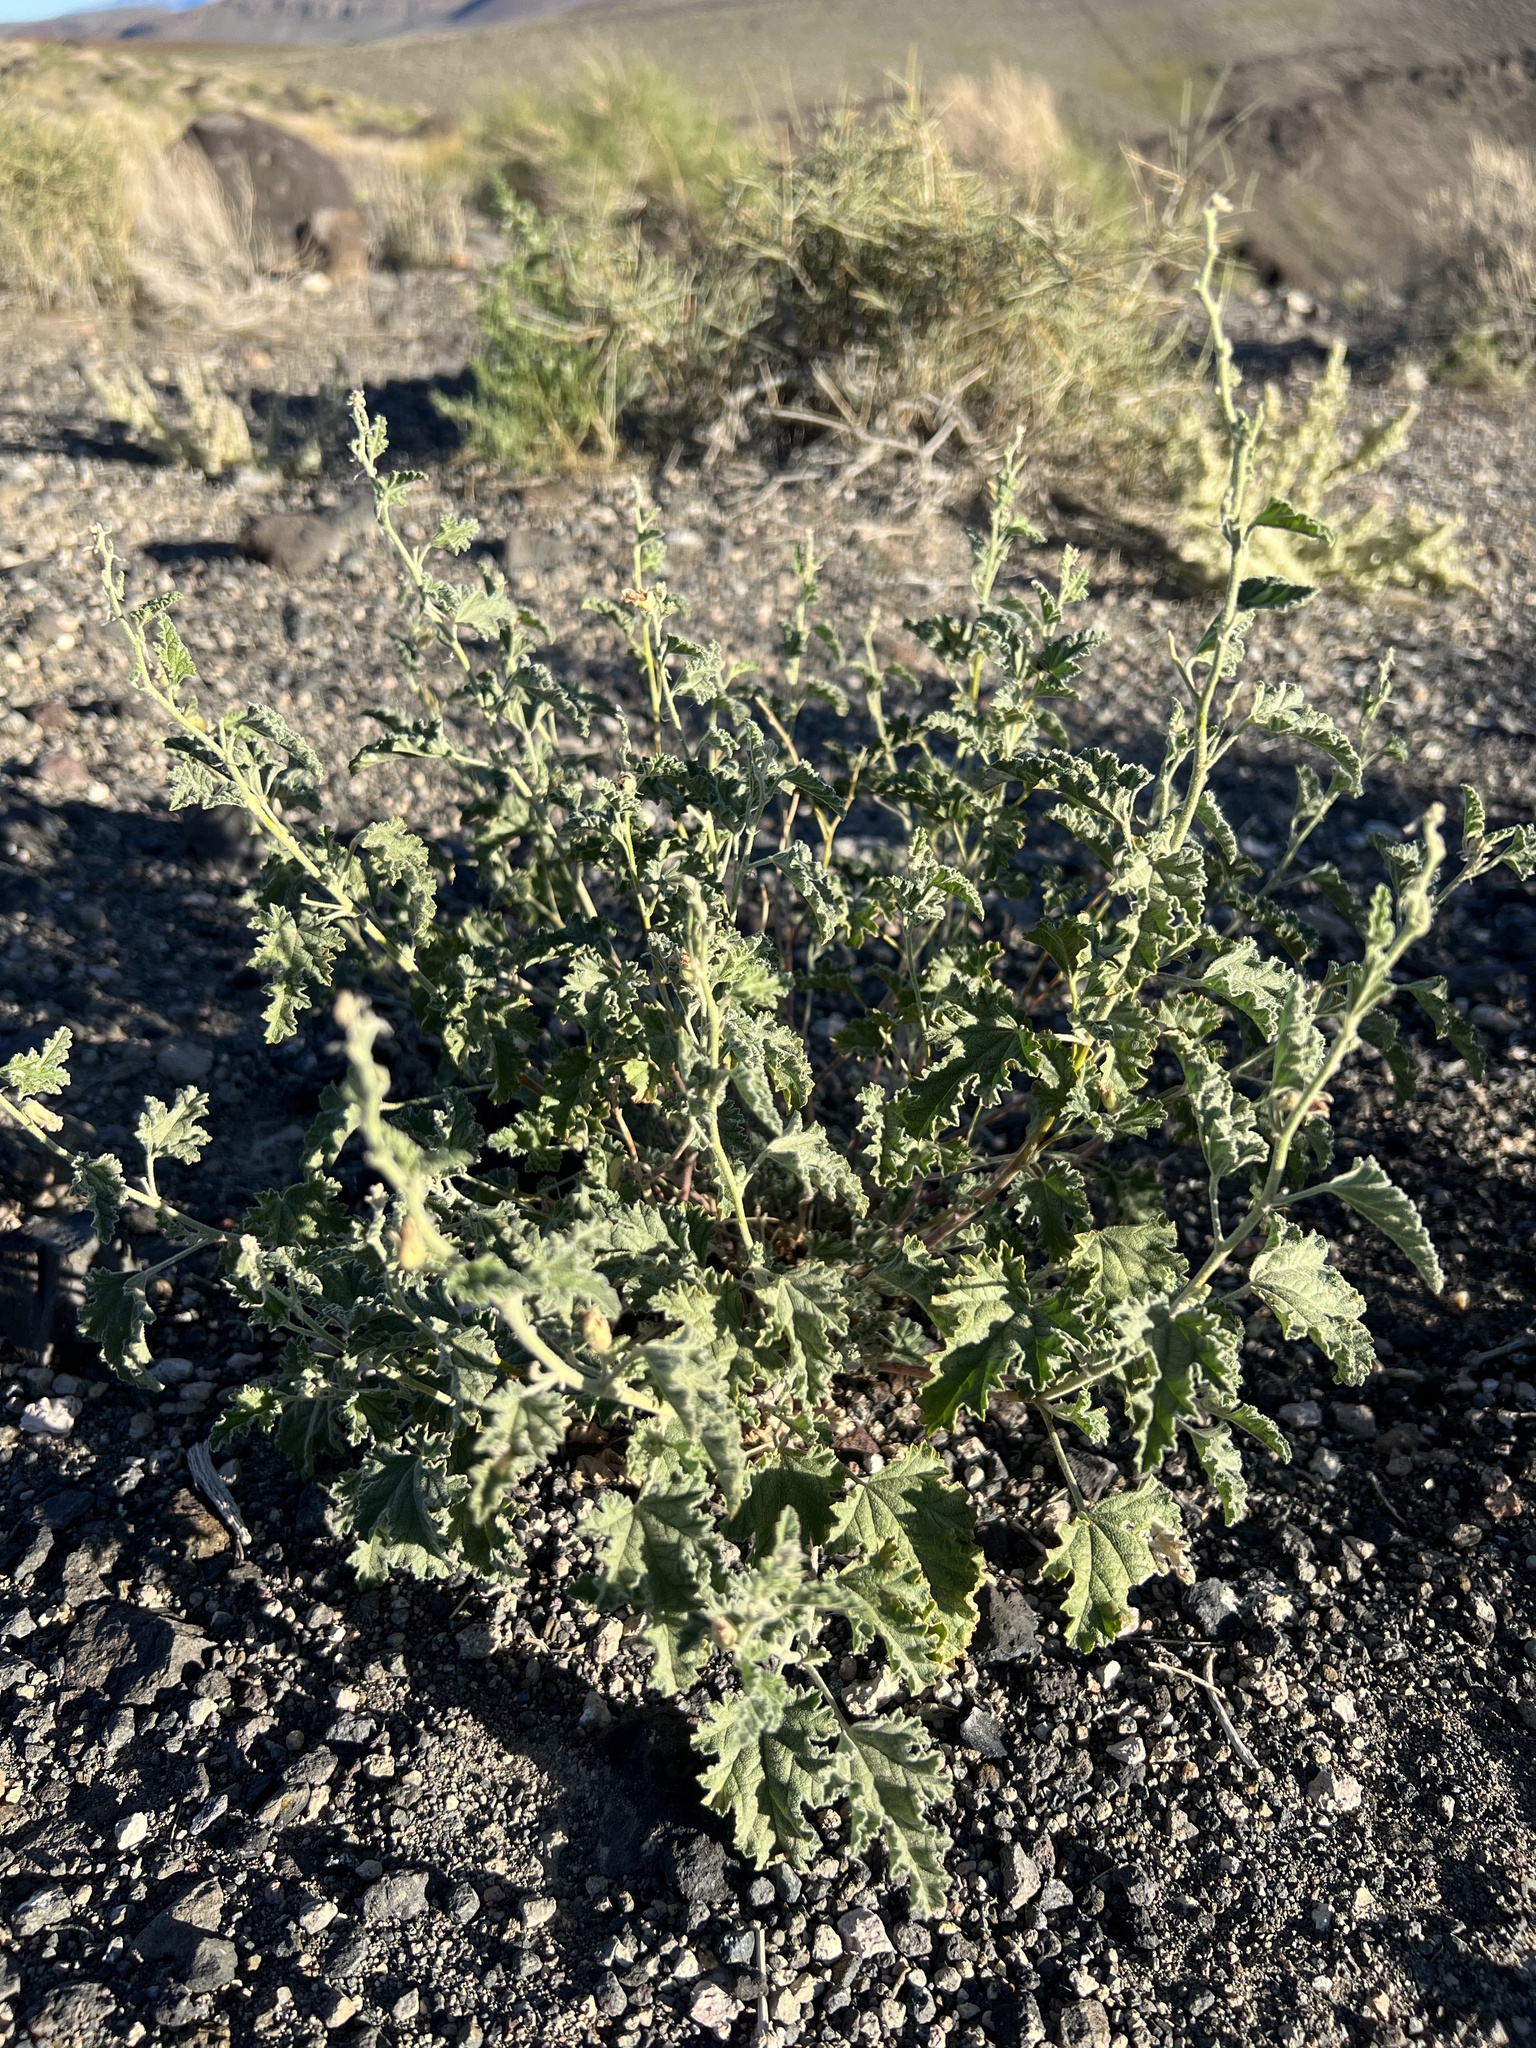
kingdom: Plantae
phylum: Tracheophyta
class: Magnoliopsida
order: Malvales
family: Malvaceae
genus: Sphaeralcea
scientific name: Sphaeralcea ambigua
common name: Apricot globe-mallow
